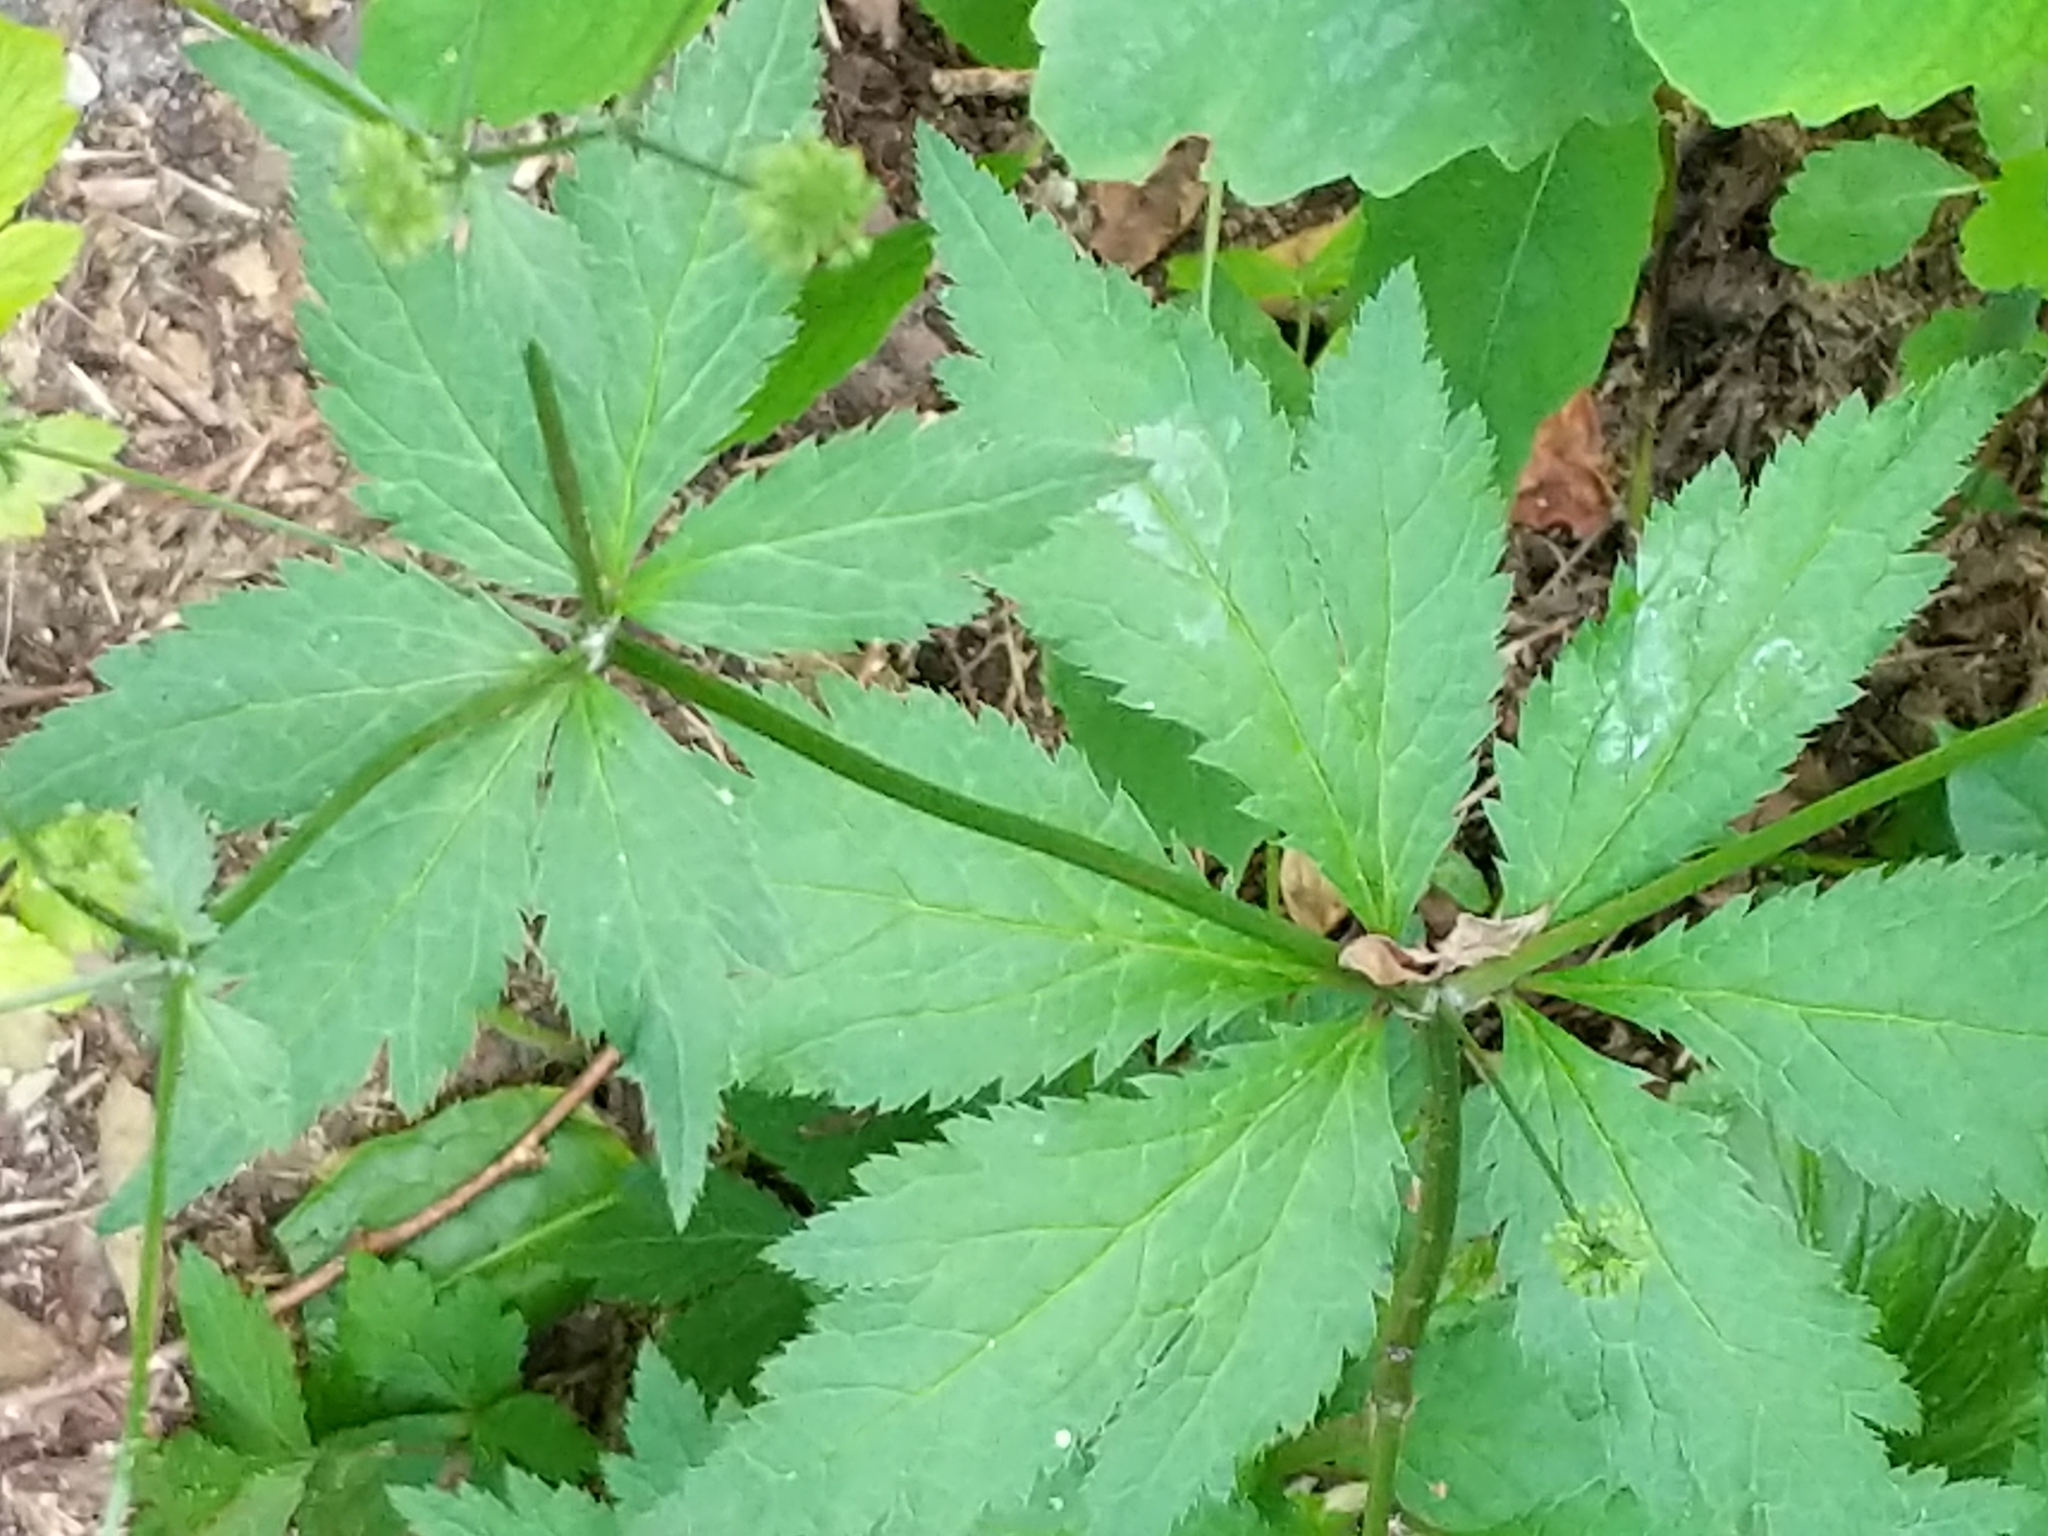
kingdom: Plantae
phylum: Tracheophyta
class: Magnoliopsida
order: Apiales
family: Apiaceae
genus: Sanicula
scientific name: Sanicula odorata
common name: Cluster sanicle
